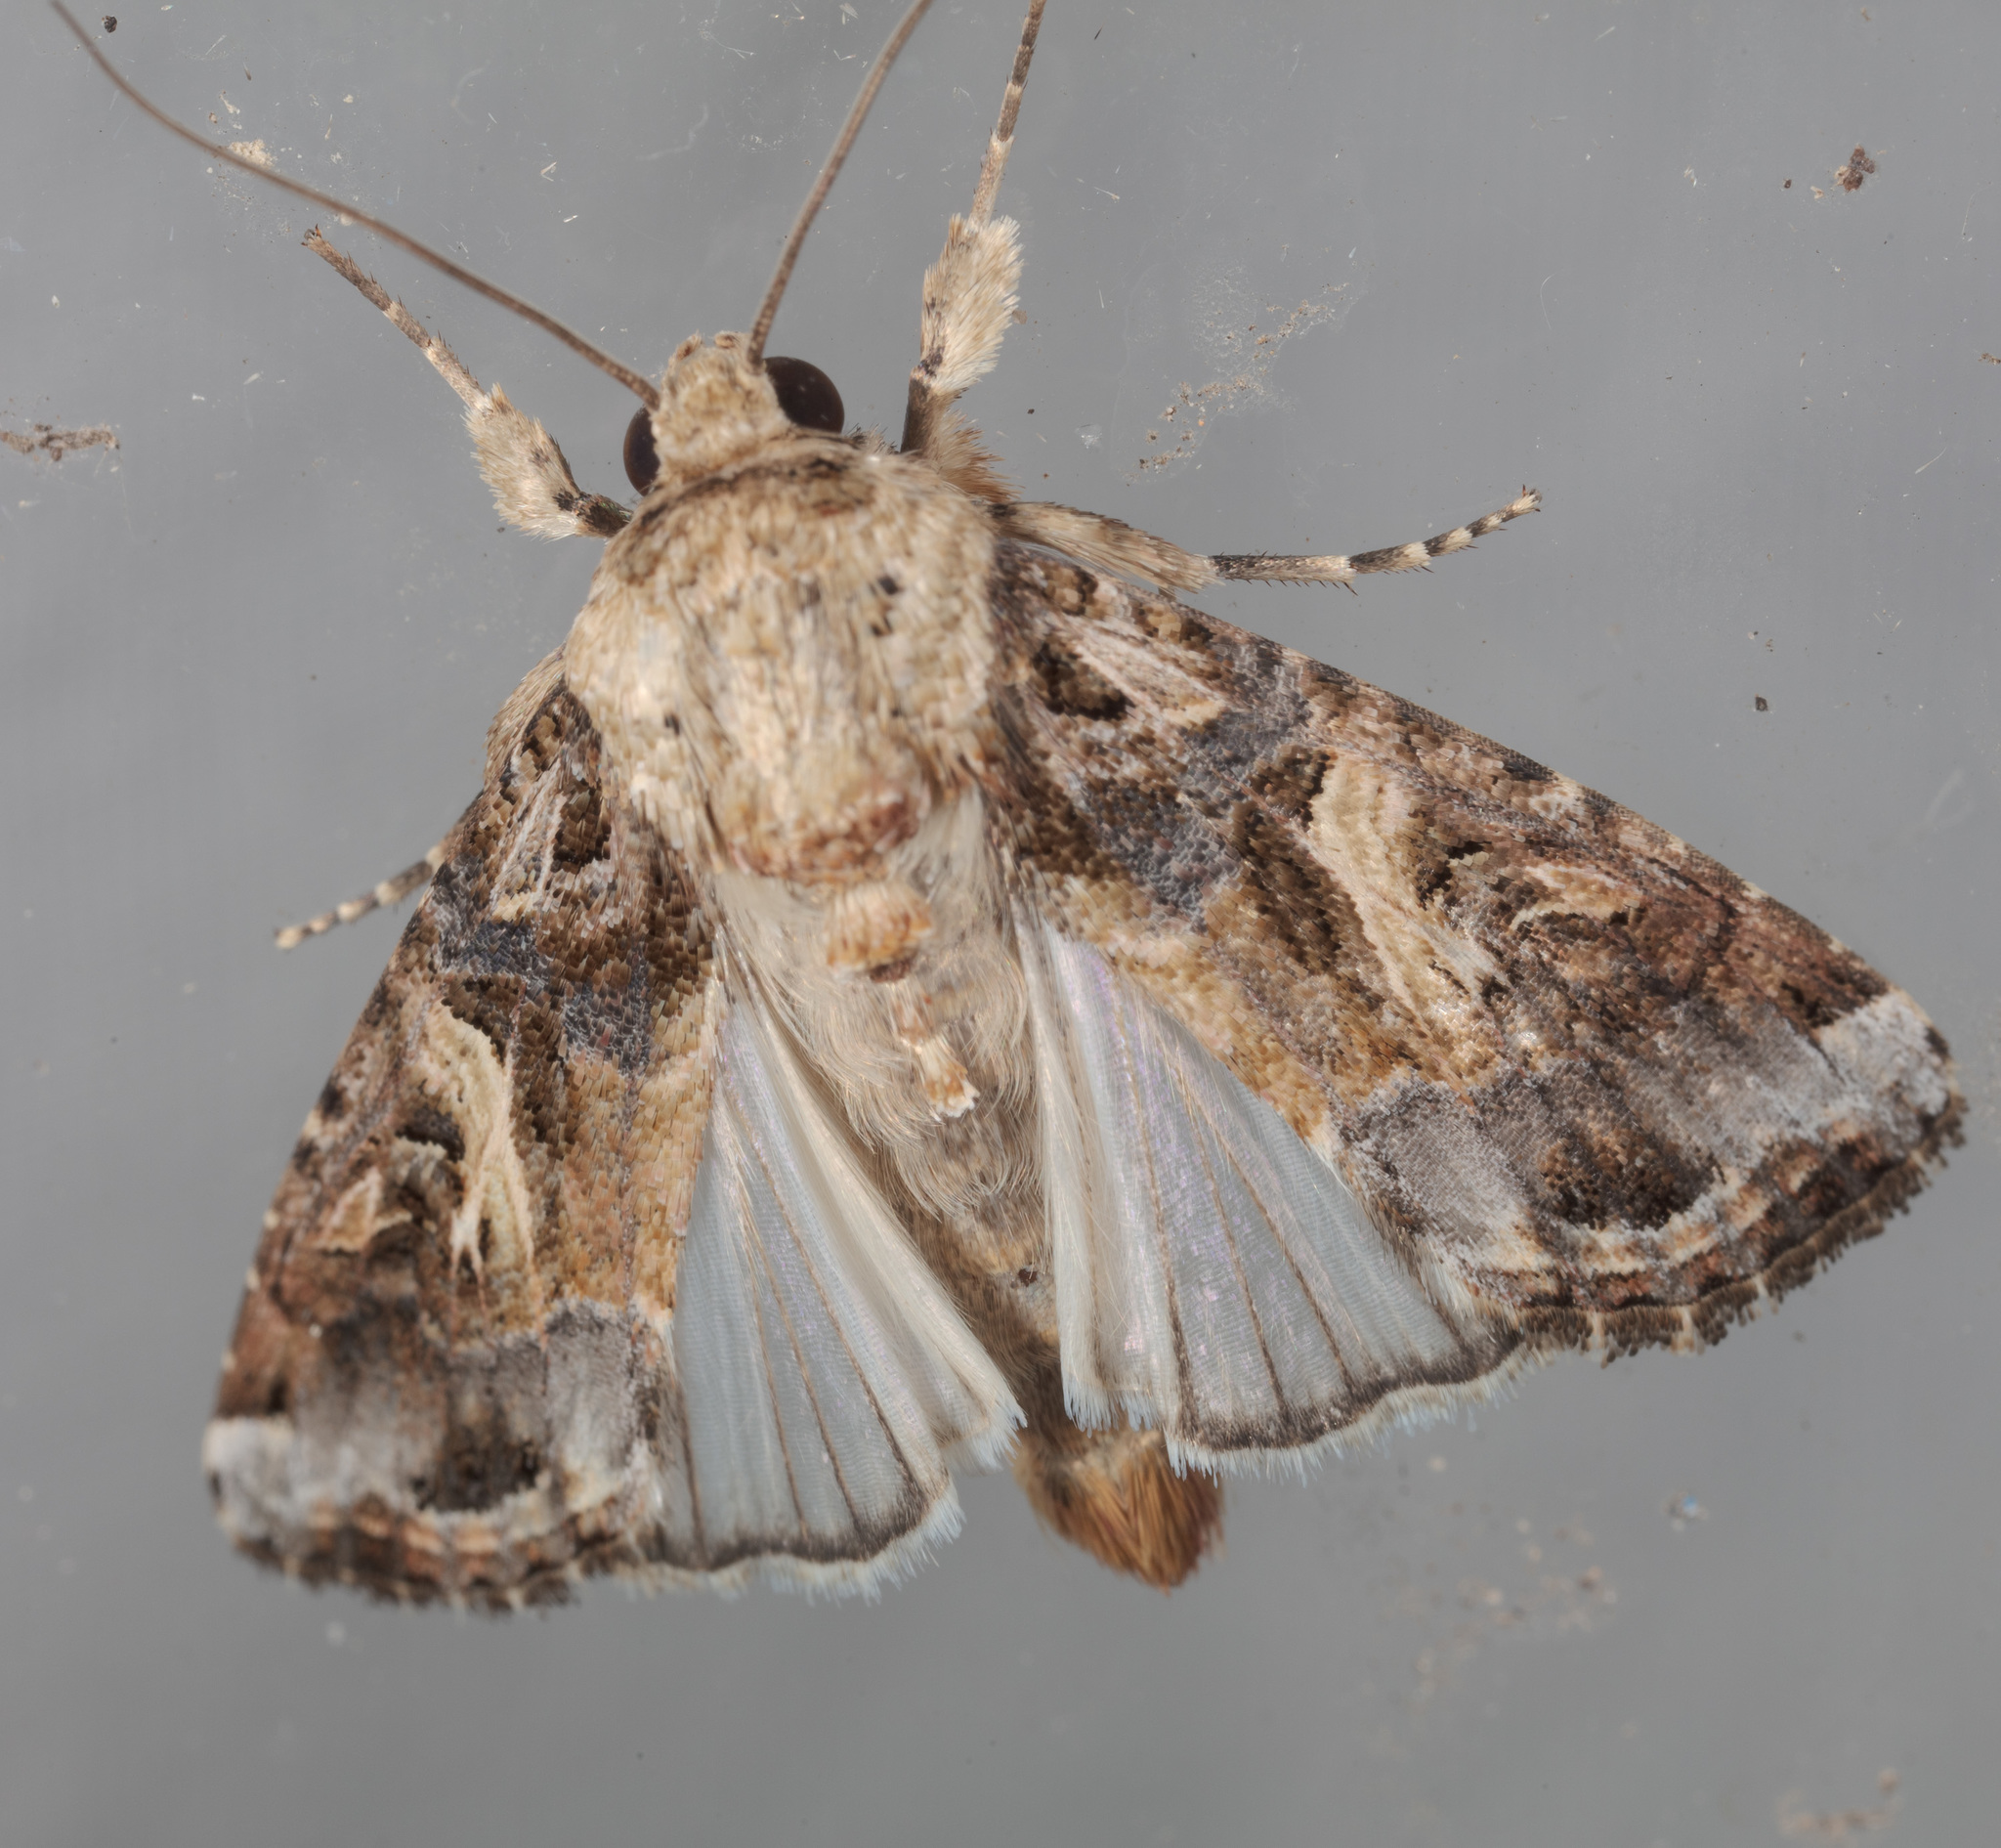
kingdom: Animalia
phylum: Arthropoda
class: Insecta
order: Lepidoptera
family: Noctuidae
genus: Spodoptera
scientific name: Spodoptera ornithogalli
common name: Yellow-striped armyworm
